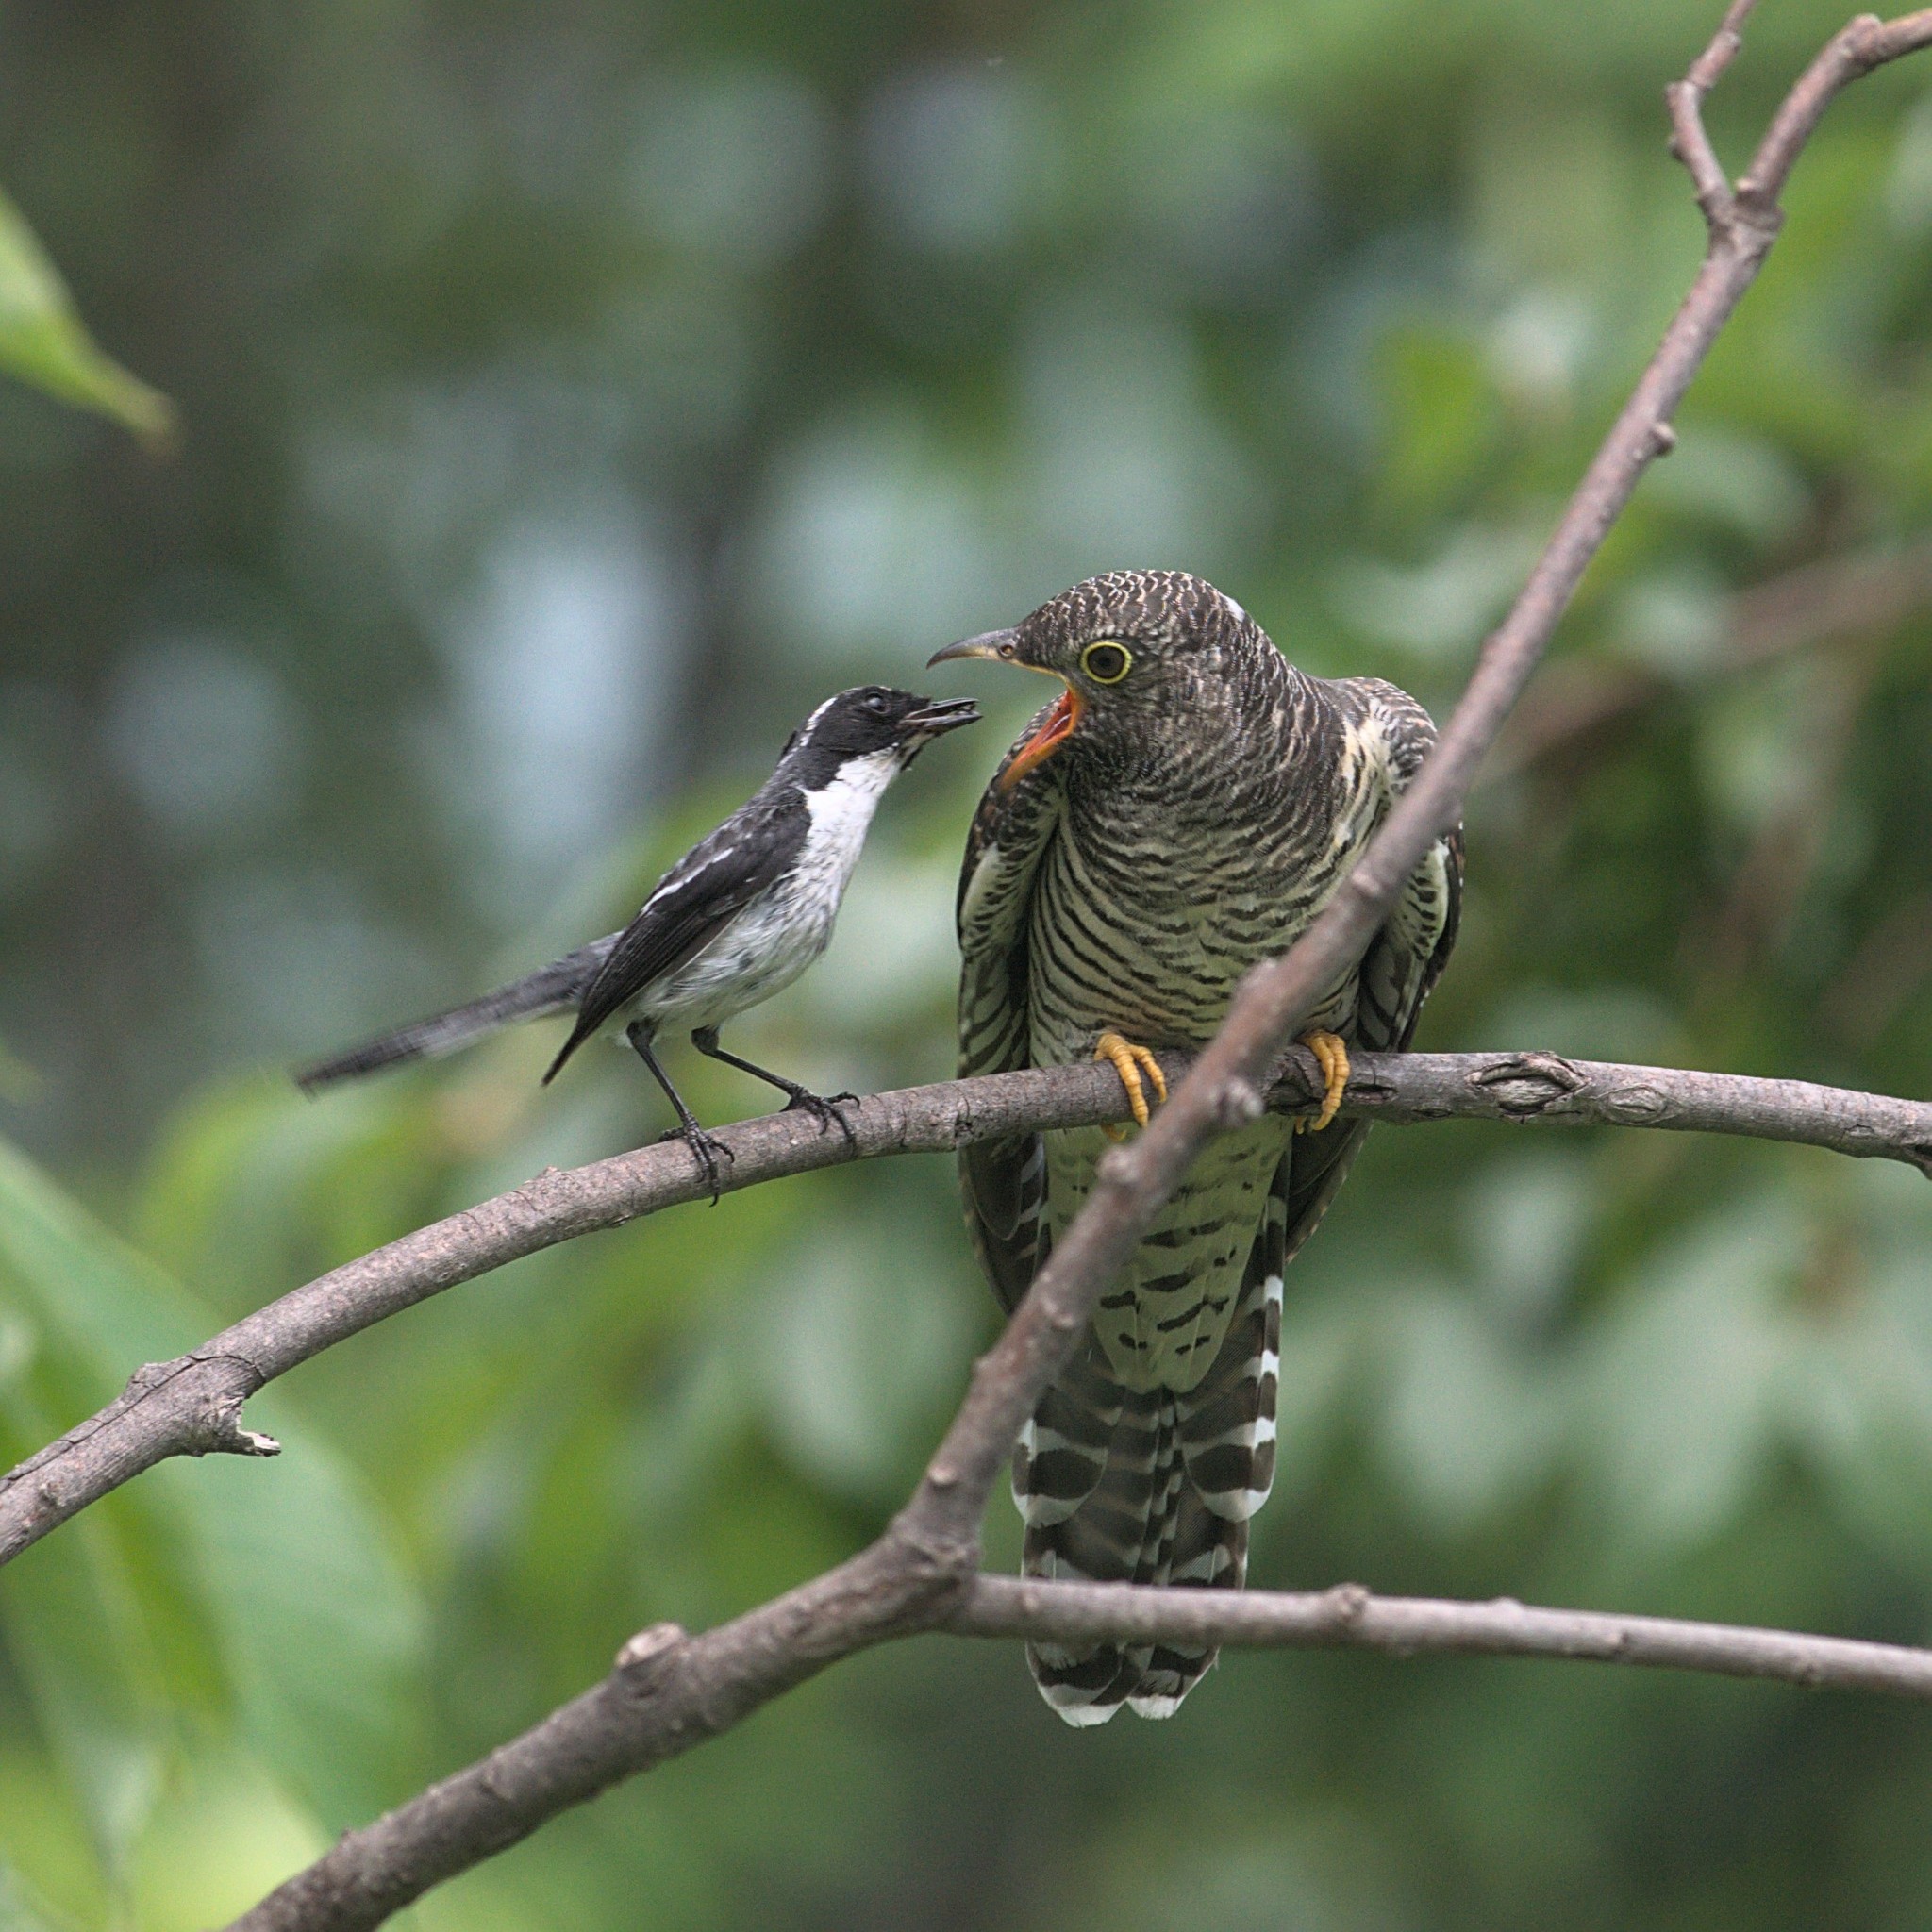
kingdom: Animalia
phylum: Chordata
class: Aves
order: Passeriformes
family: Muscicapidae
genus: Saxicola
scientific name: Saxicola ferreus
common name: Grey bush chat
